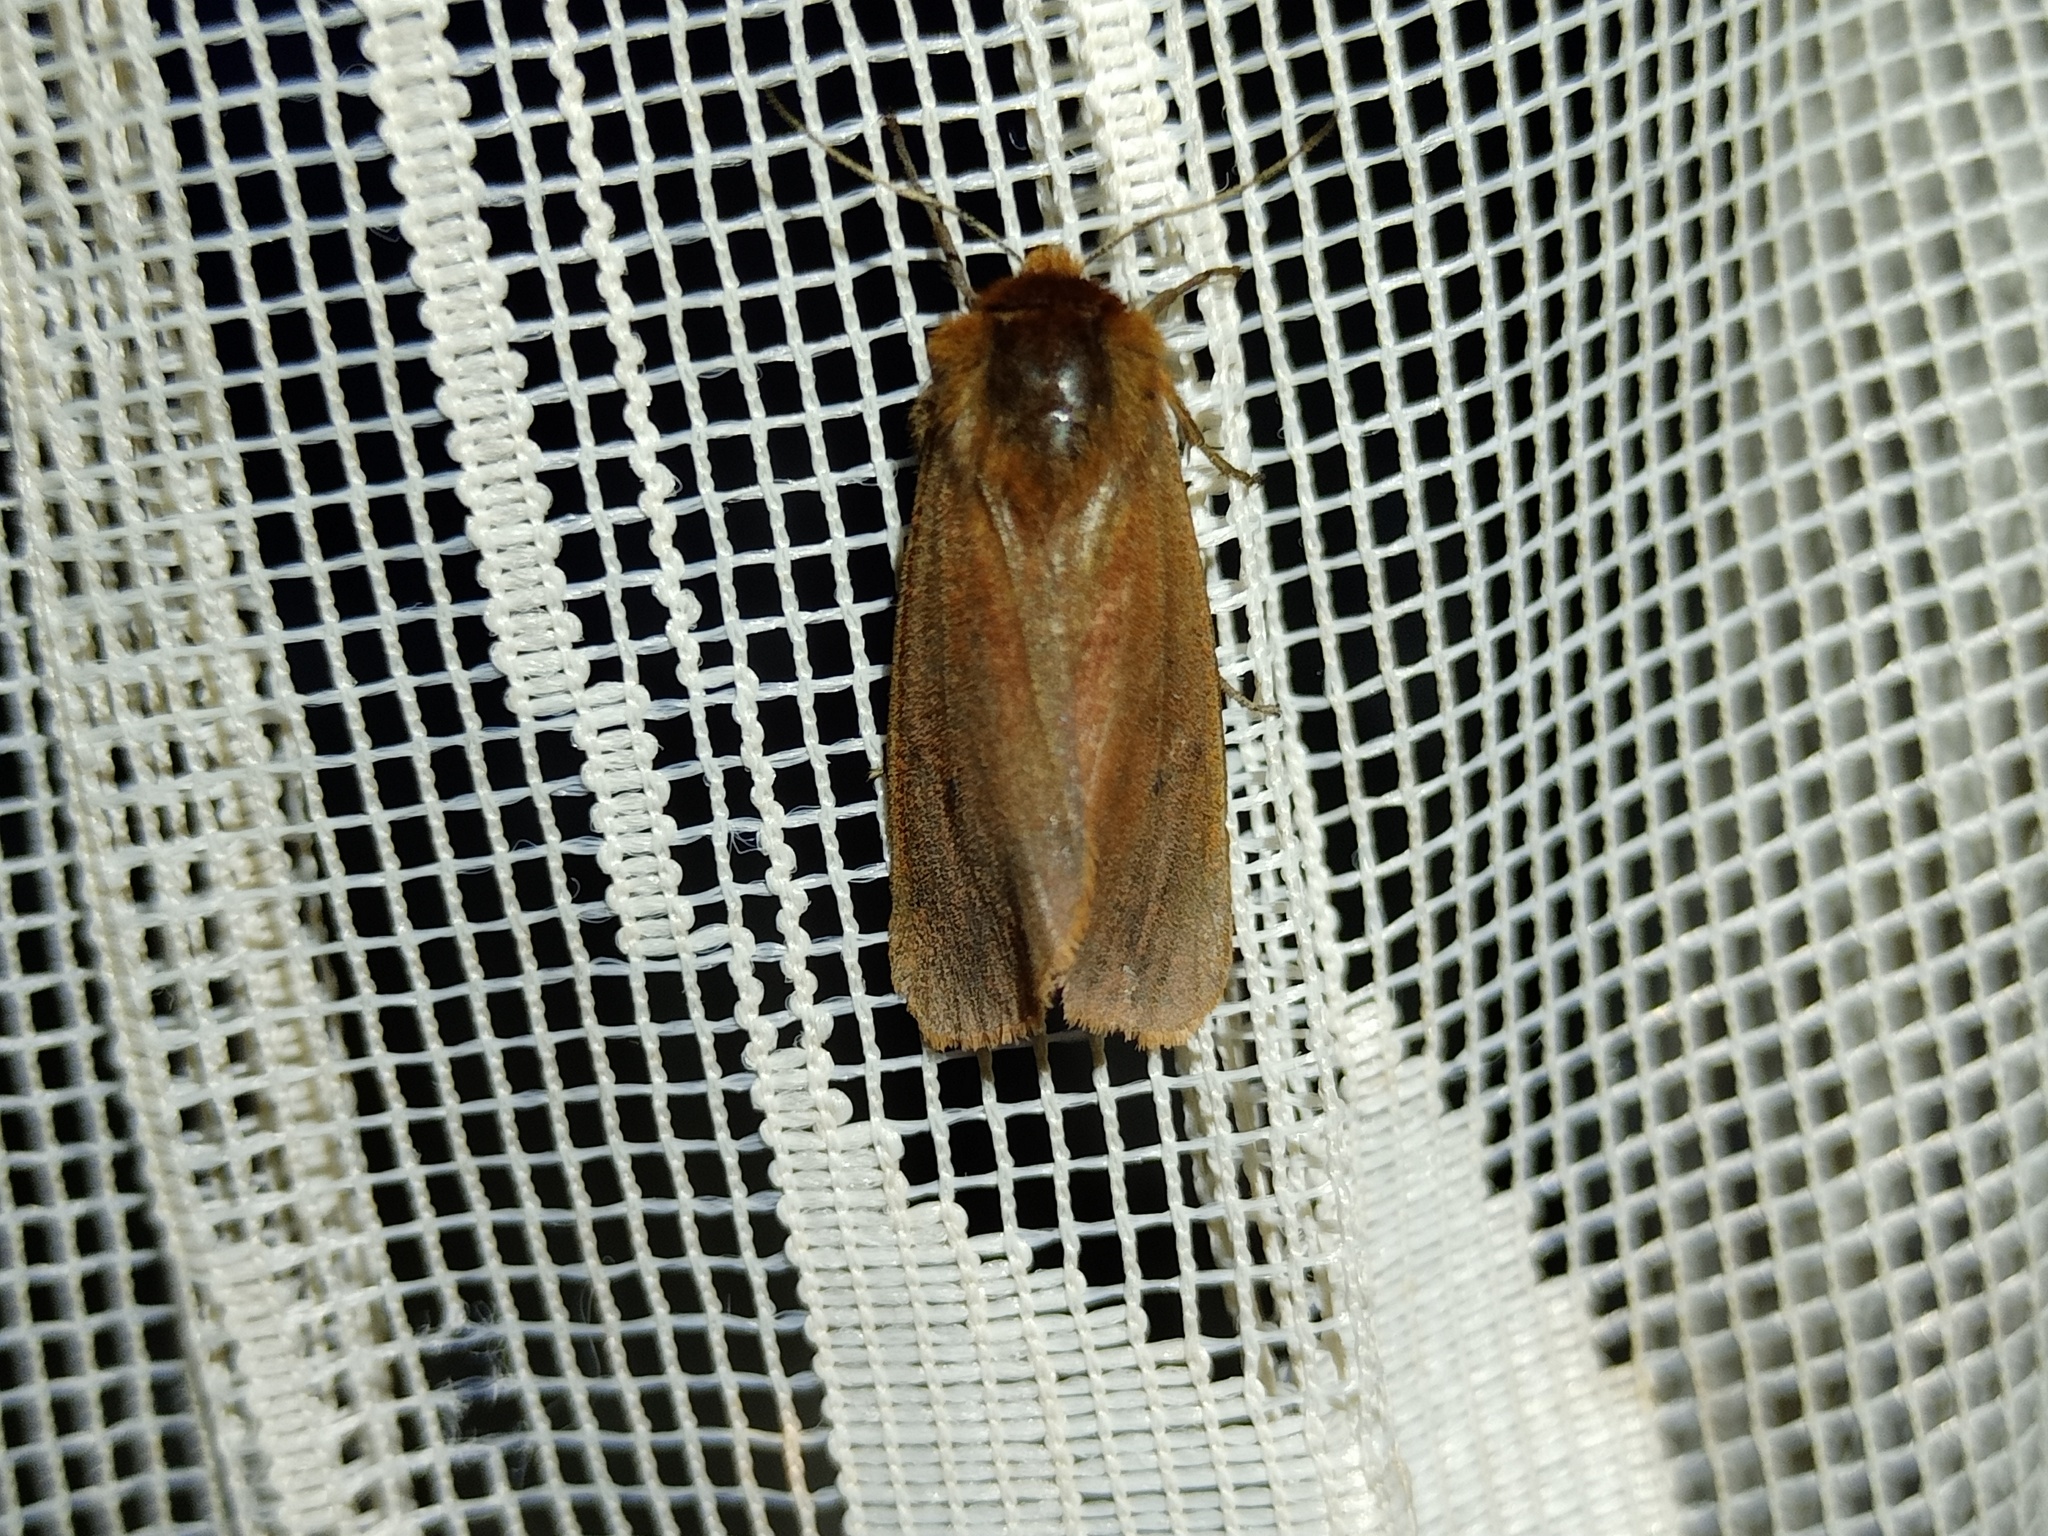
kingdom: Animalia
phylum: Arthropoda
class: Insecta
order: Lepidoptera
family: Erebidae
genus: Phragmatobia
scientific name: Phragmatobia fuliginosa
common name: Ruby tiger
